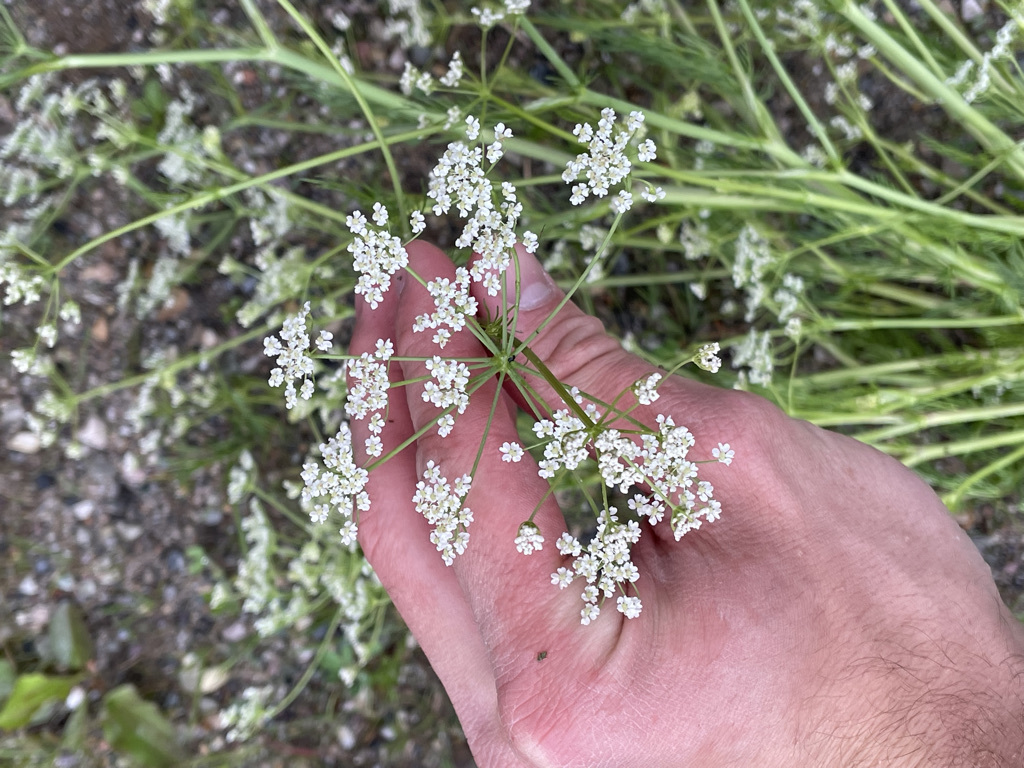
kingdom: Plantae
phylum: Tracheophyta
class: Magnoliopsida
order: Apiales
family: Apiaceae
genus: Carum
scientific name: Carum carvi
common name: Caraway
